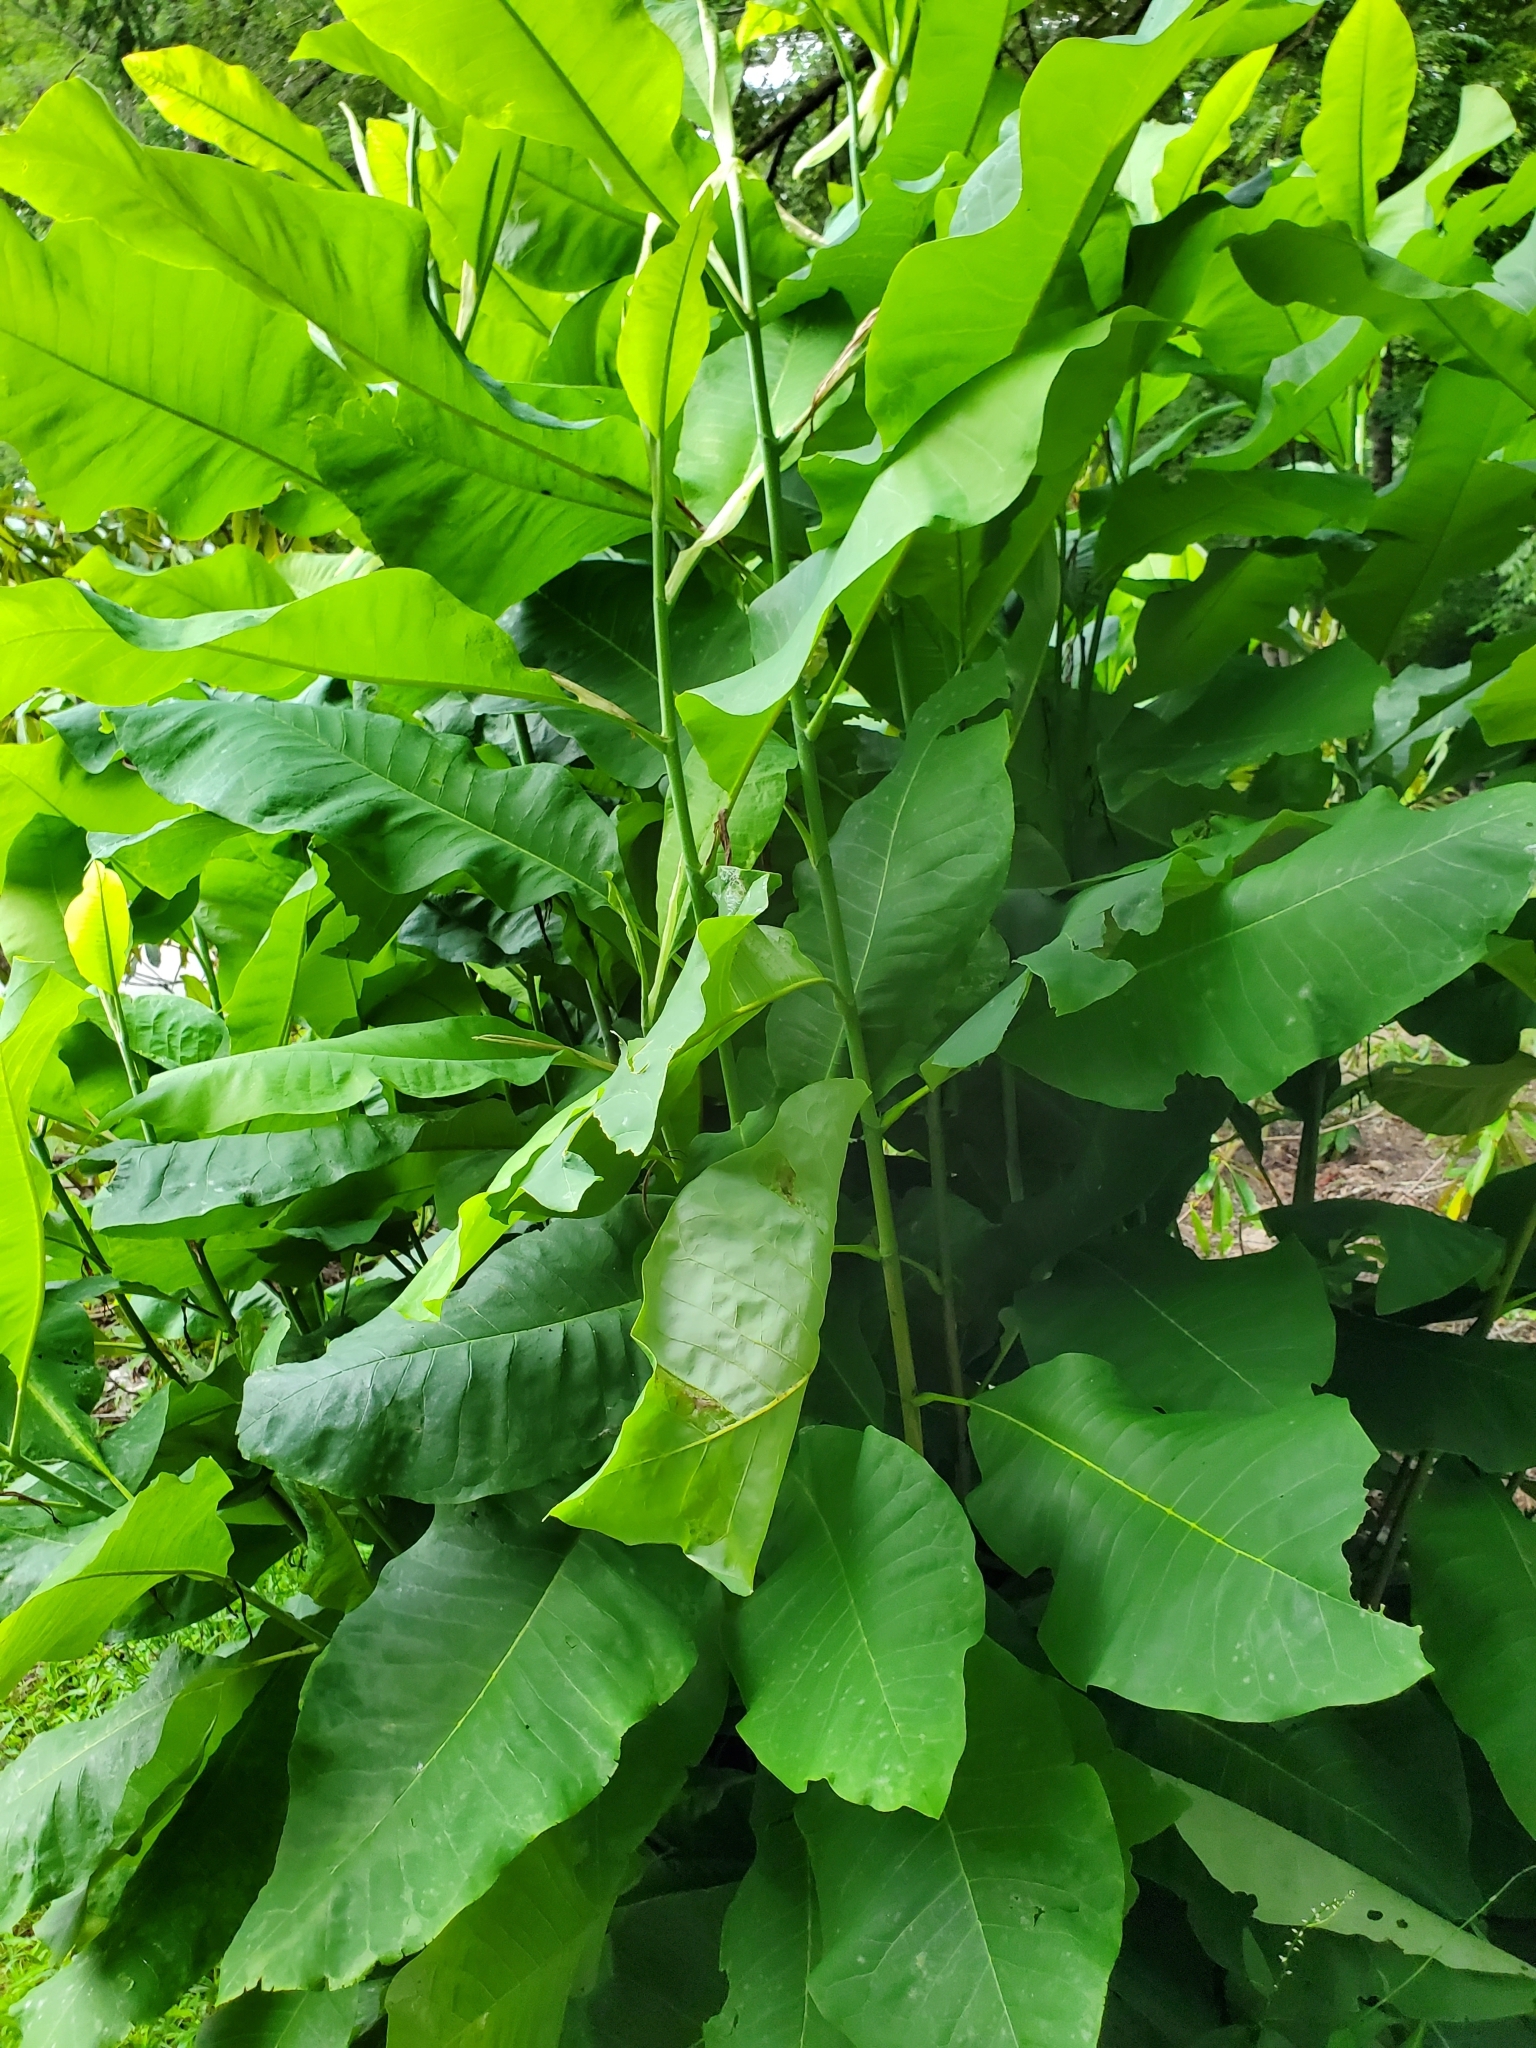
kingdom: Plantae
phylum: Tracheophyta
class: Magnoliopsida
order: Magnoliales
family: Magnoliaceae
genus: Magnolia
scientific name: Magnolia tripetala
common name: Umbrella magnolia
